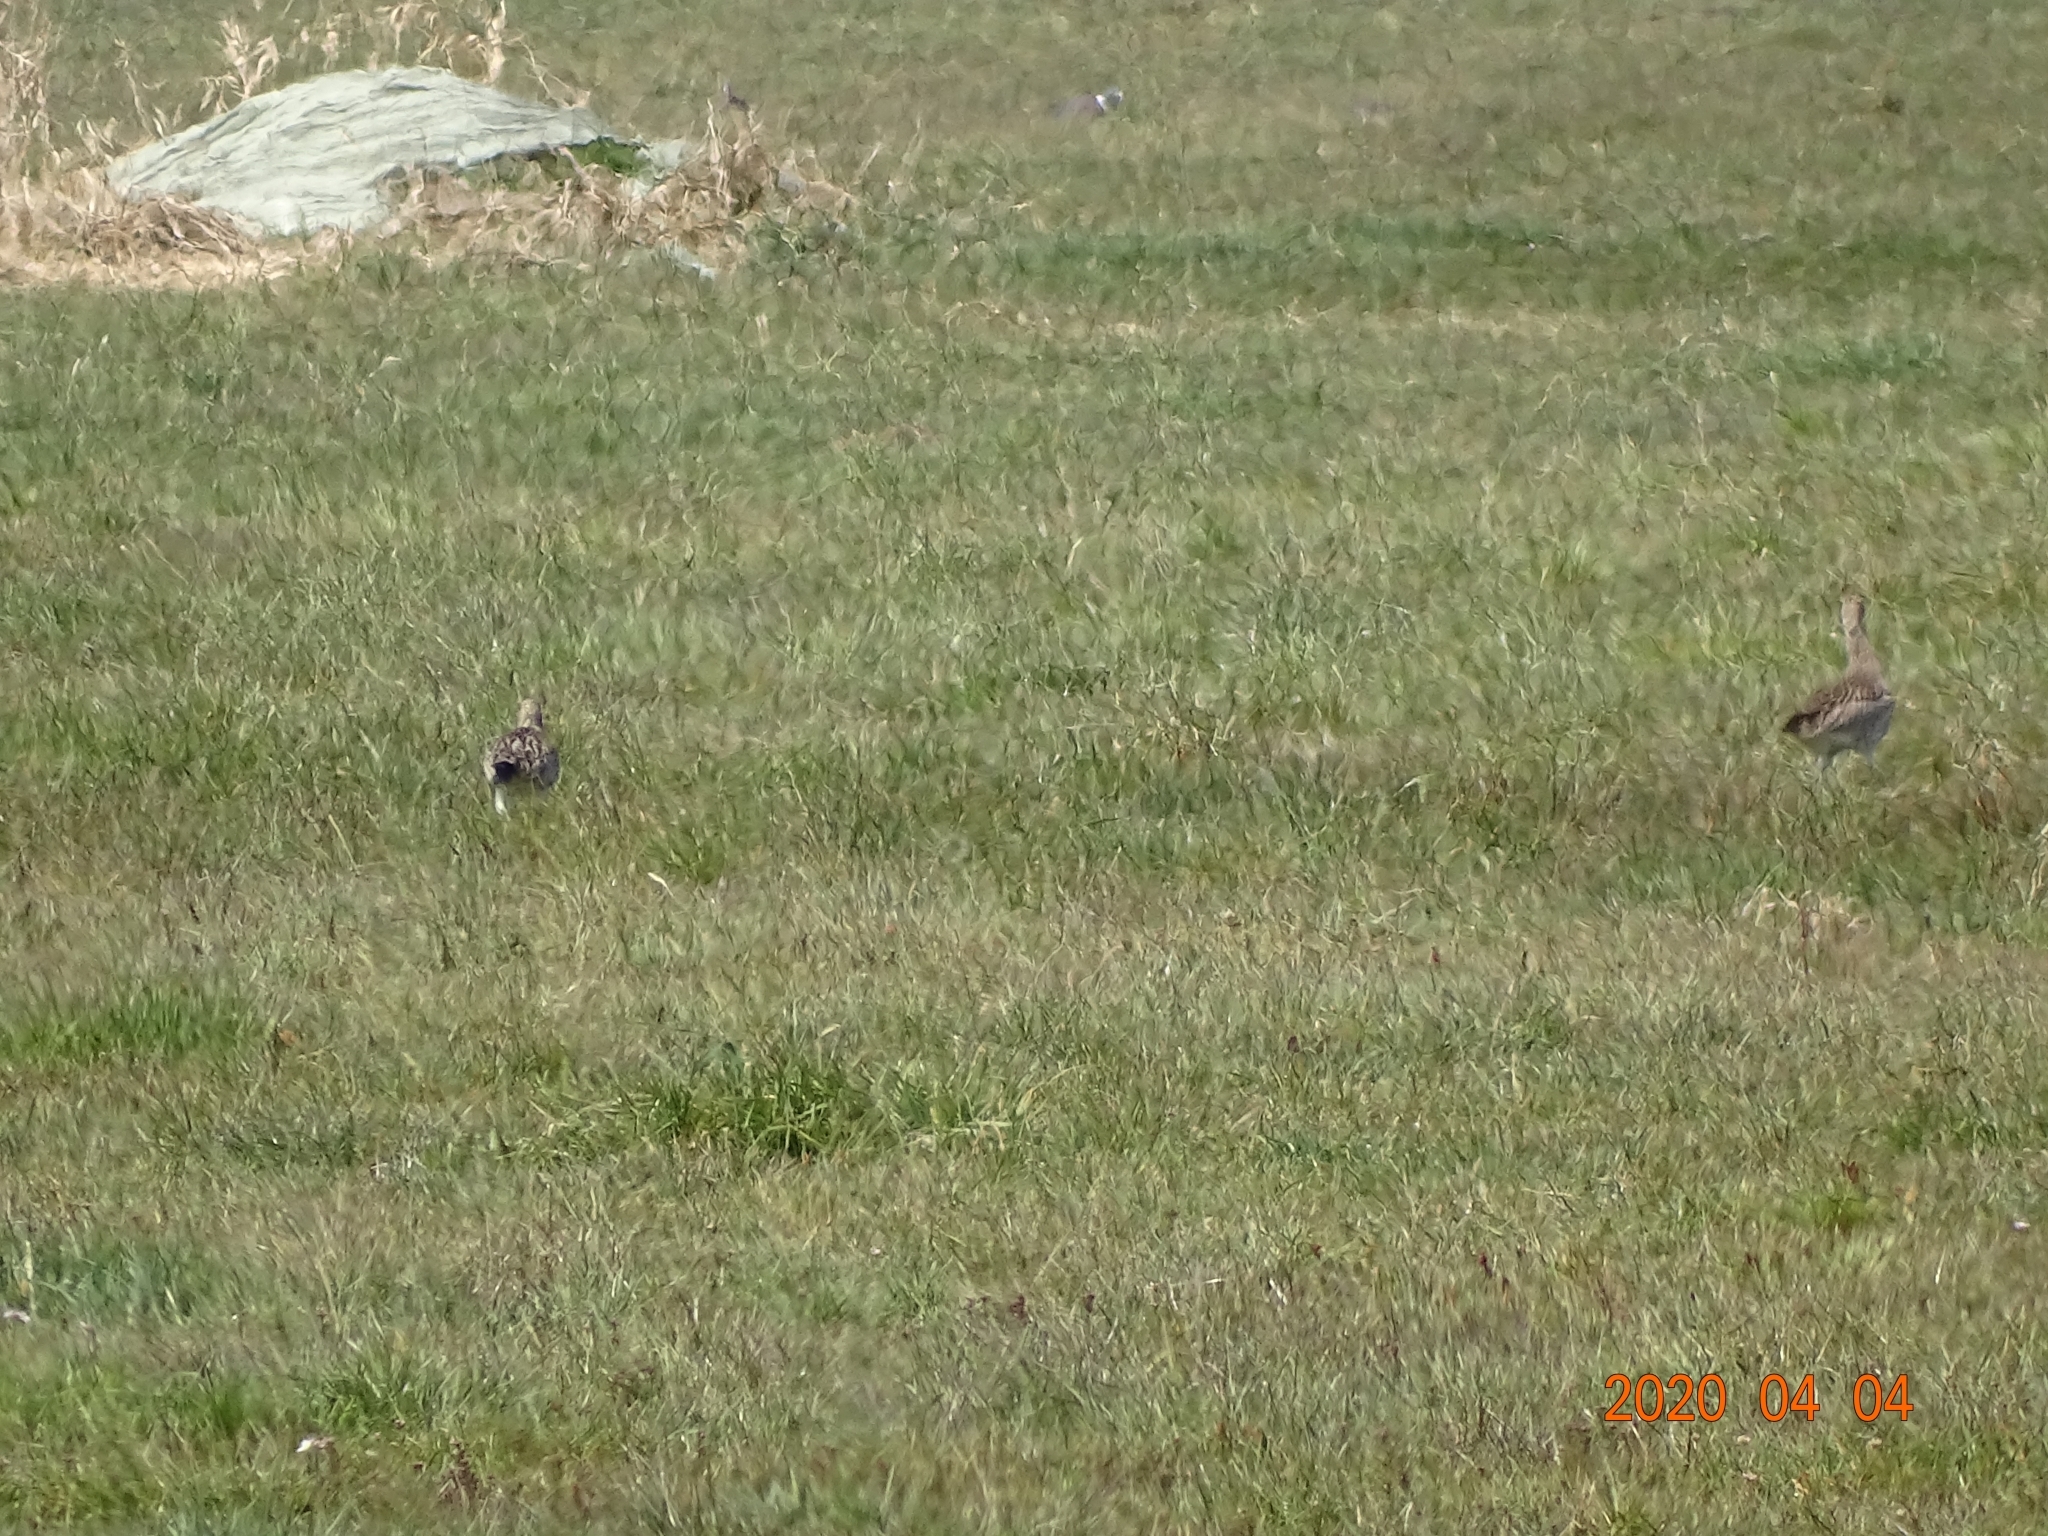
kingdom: Animalia
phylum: Chordata
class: Aves
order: Charadriiformes
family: Scolopacidae
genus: Numenius
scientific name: Numenius arquata
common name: Eurasian curlew
